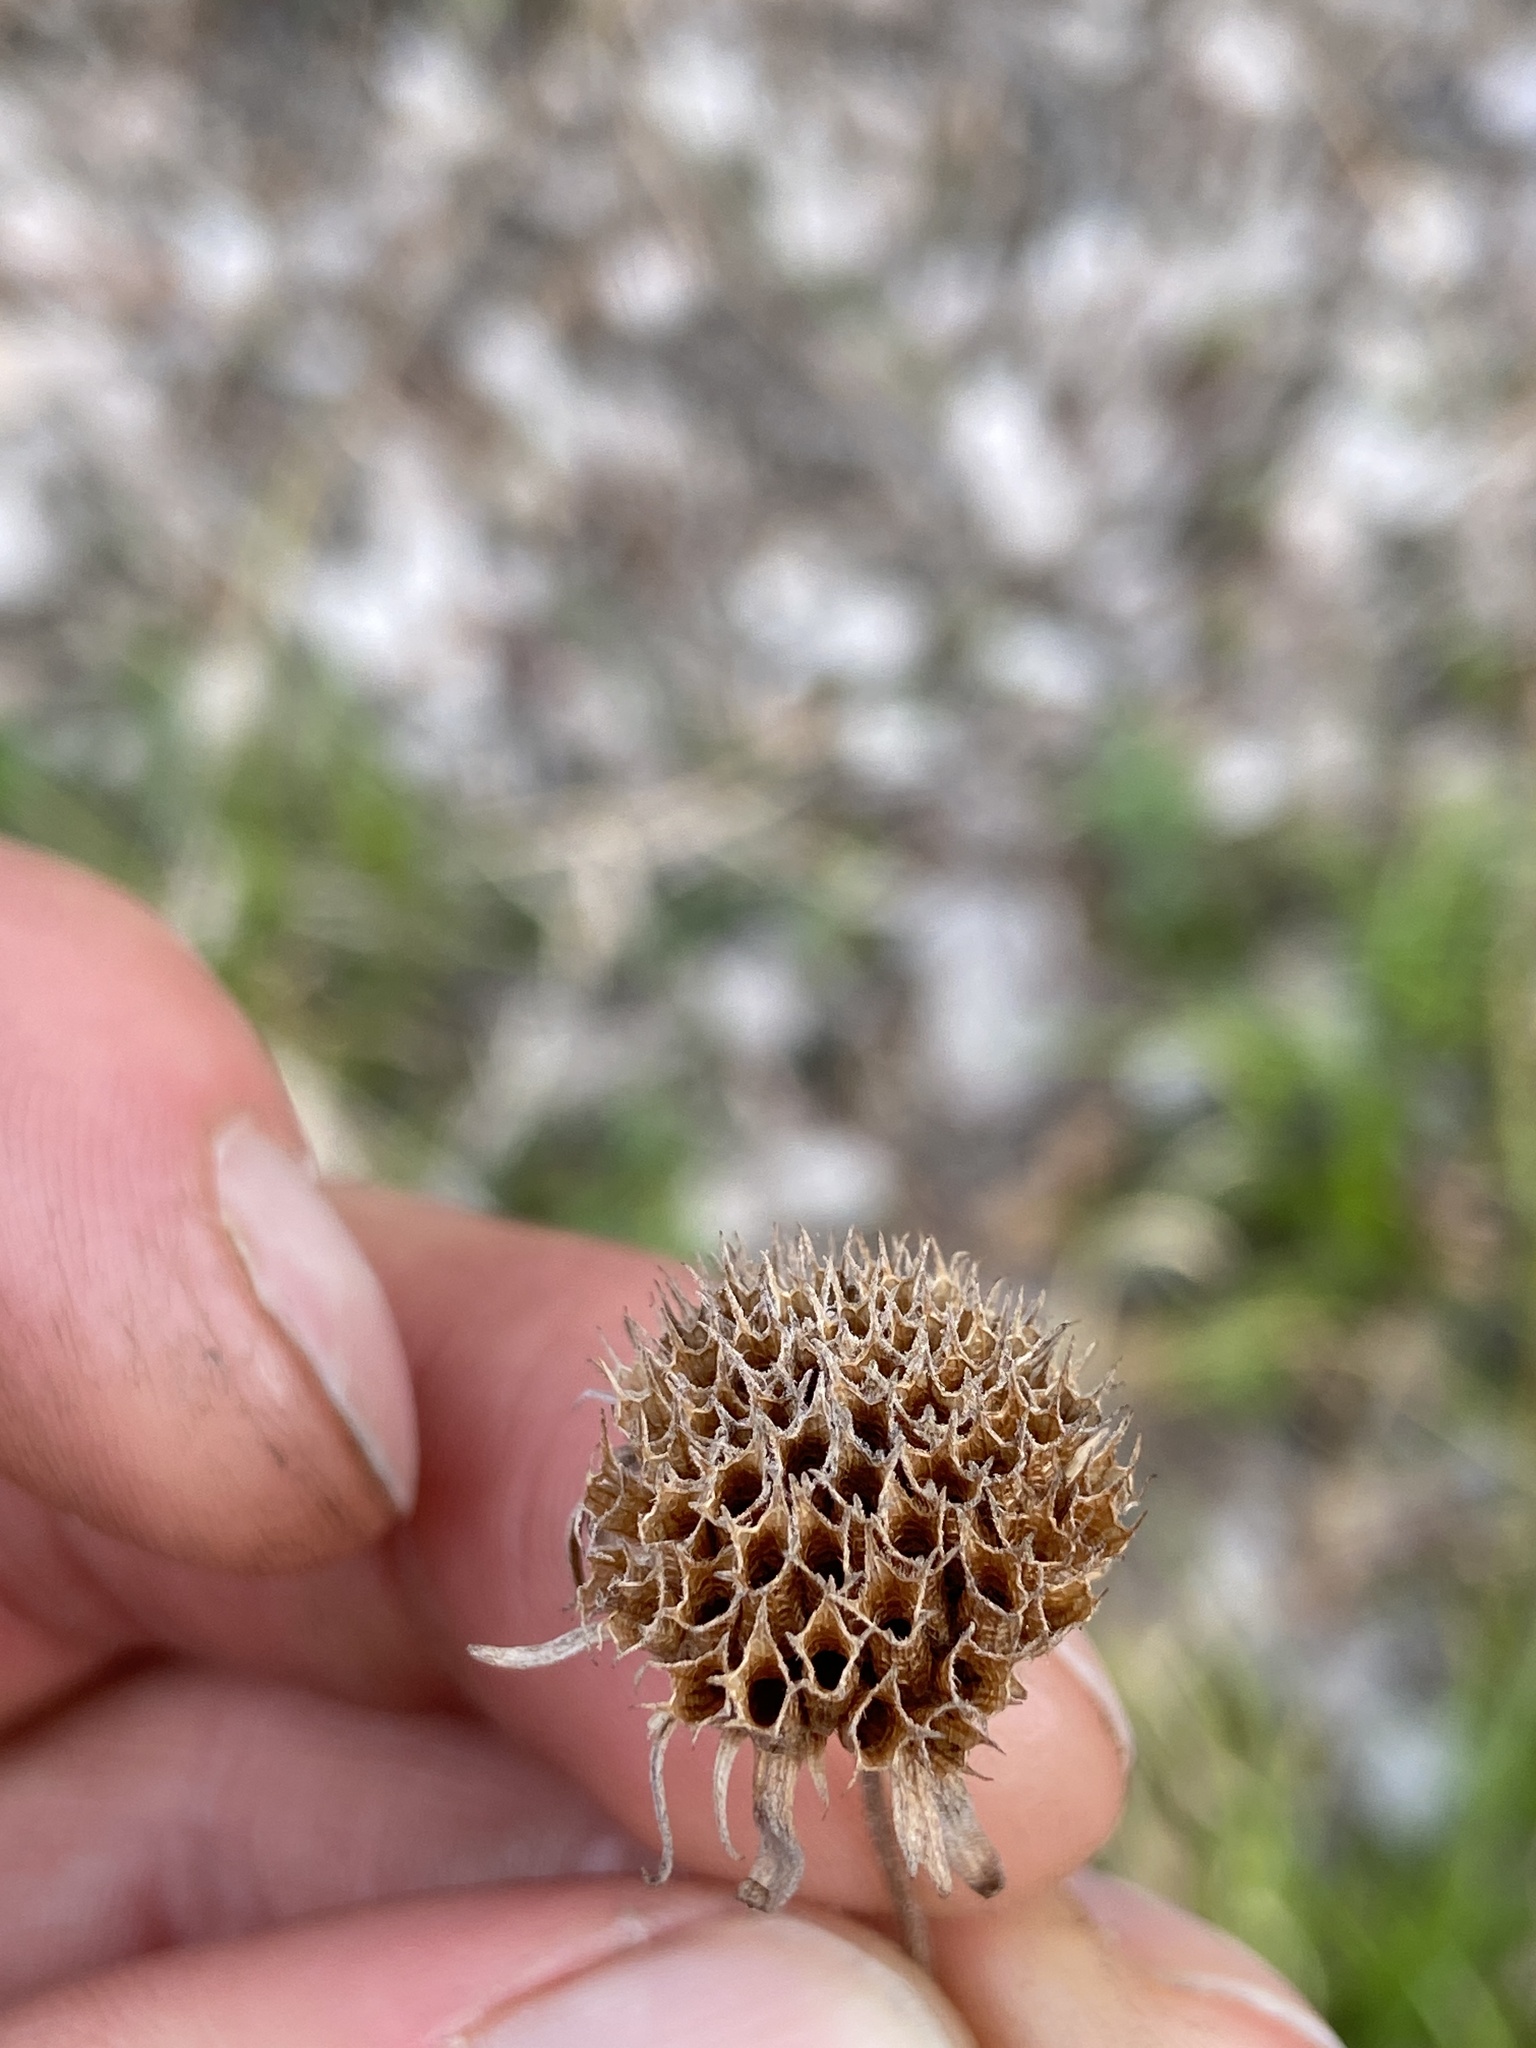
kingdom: Plantae
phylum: Tracheophyta
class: Magnoliopsida
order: Lamiales
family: Lamiaceae
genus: Hyptis
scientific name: Hyptis alata
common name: Cluster bush-mint
